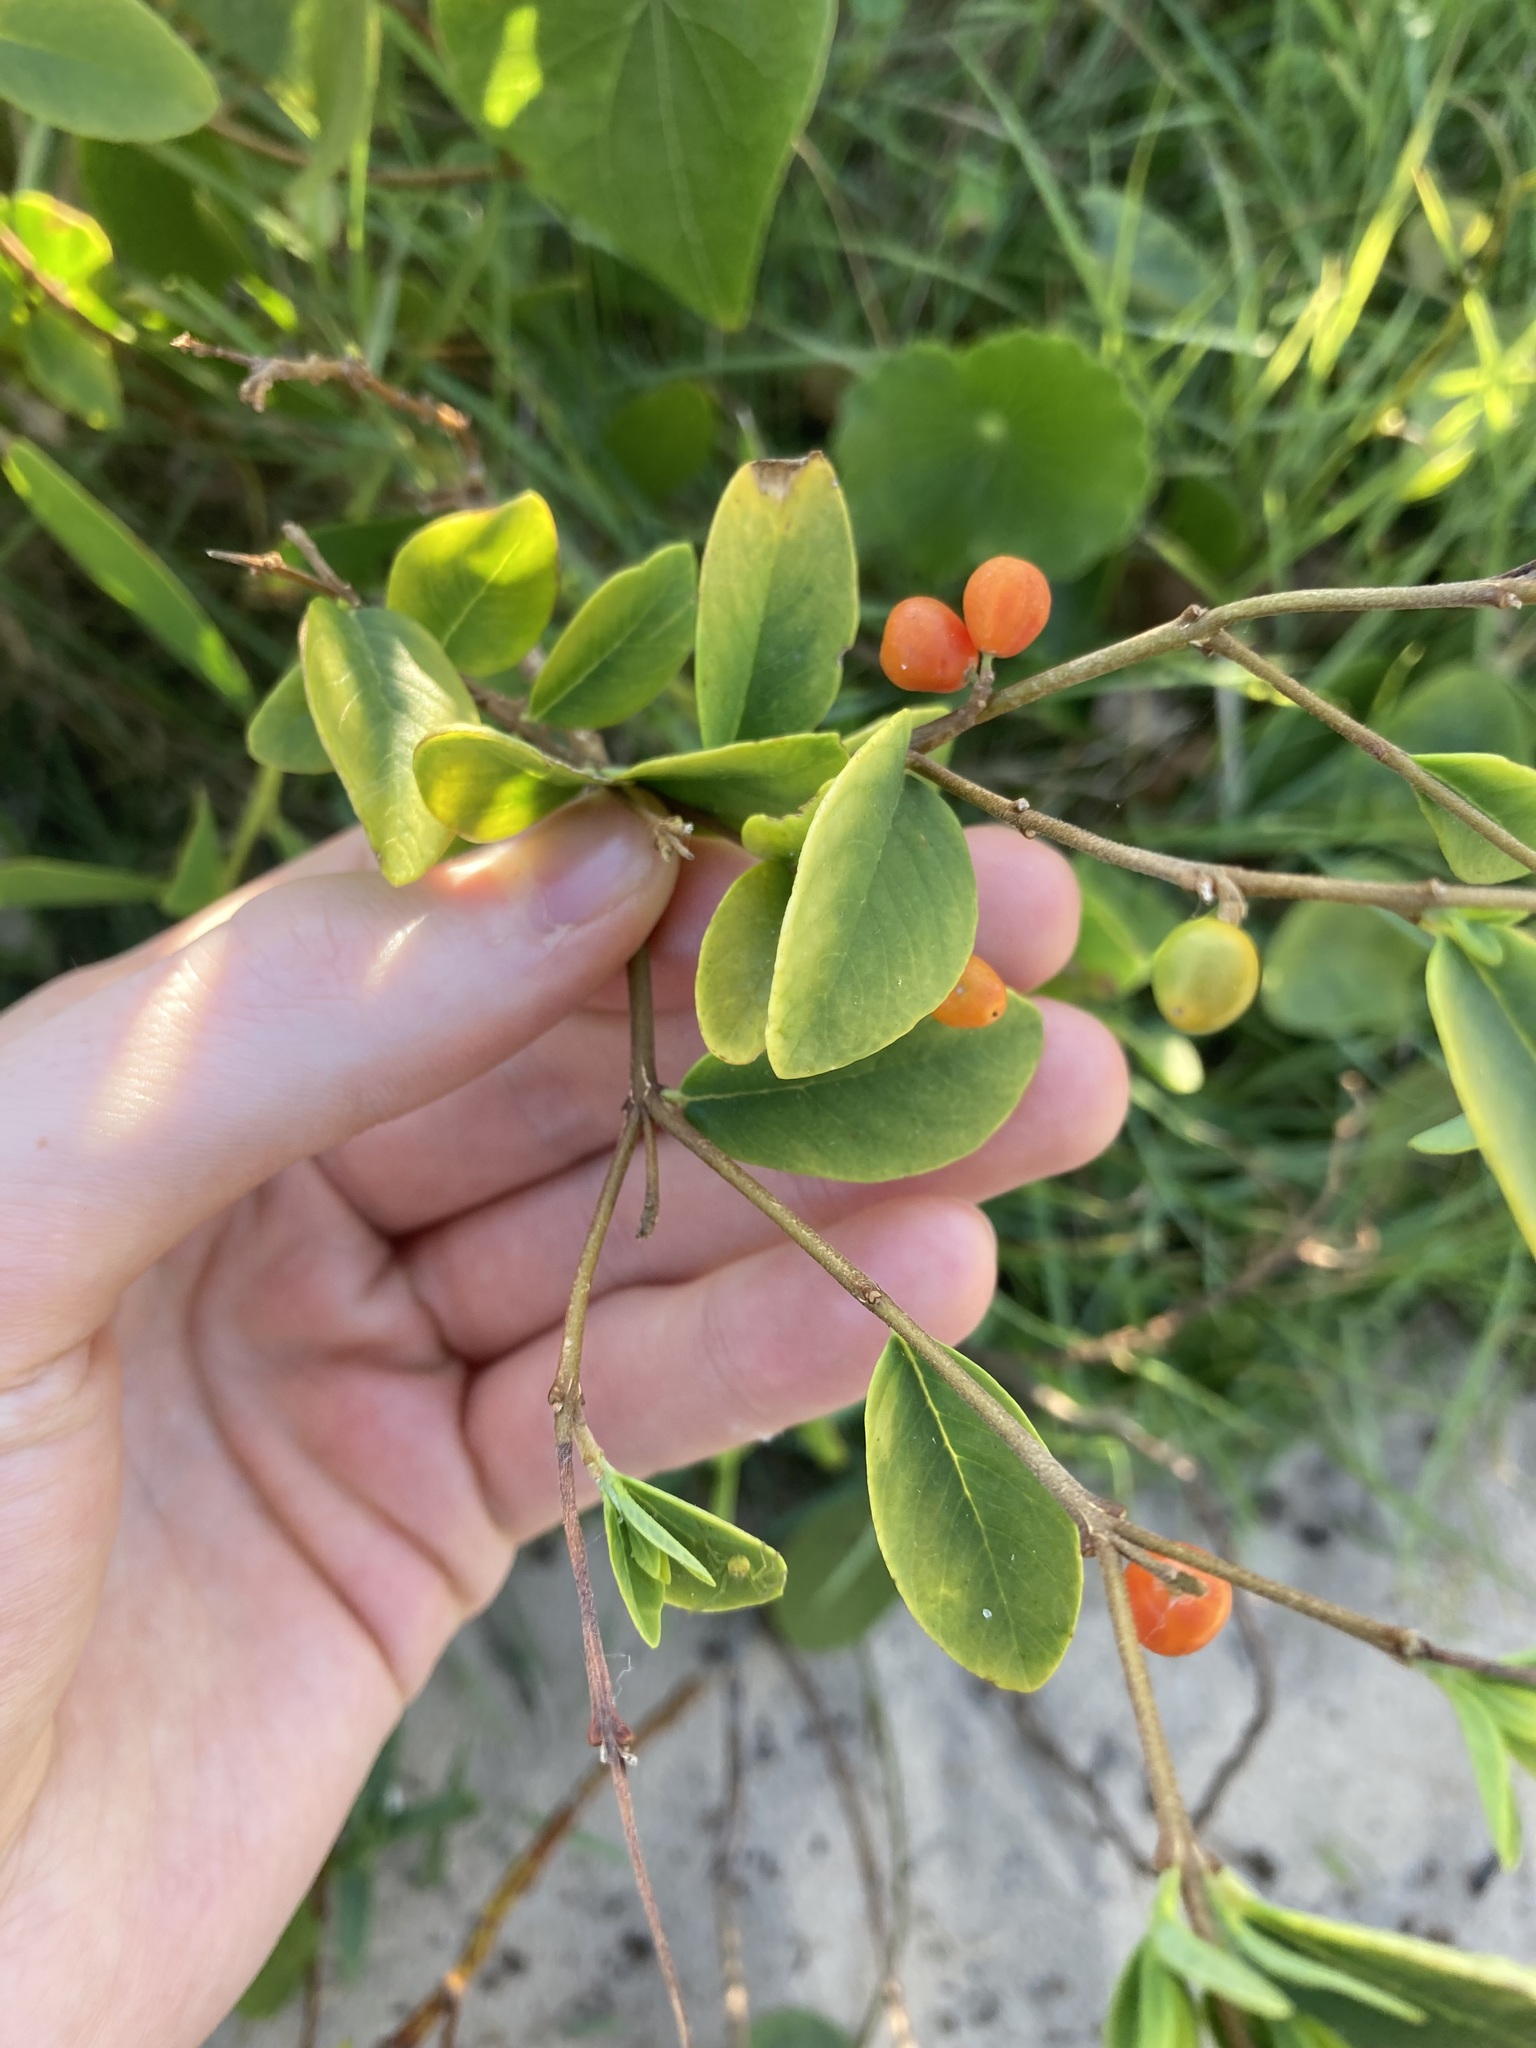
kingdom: Plantae
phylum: Tracheophyta
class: Magnoliopsida
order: Malvales
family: Thymelaeaceae
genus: Wikstroemia
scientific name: Wikstroemia indica
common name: Tiebush
